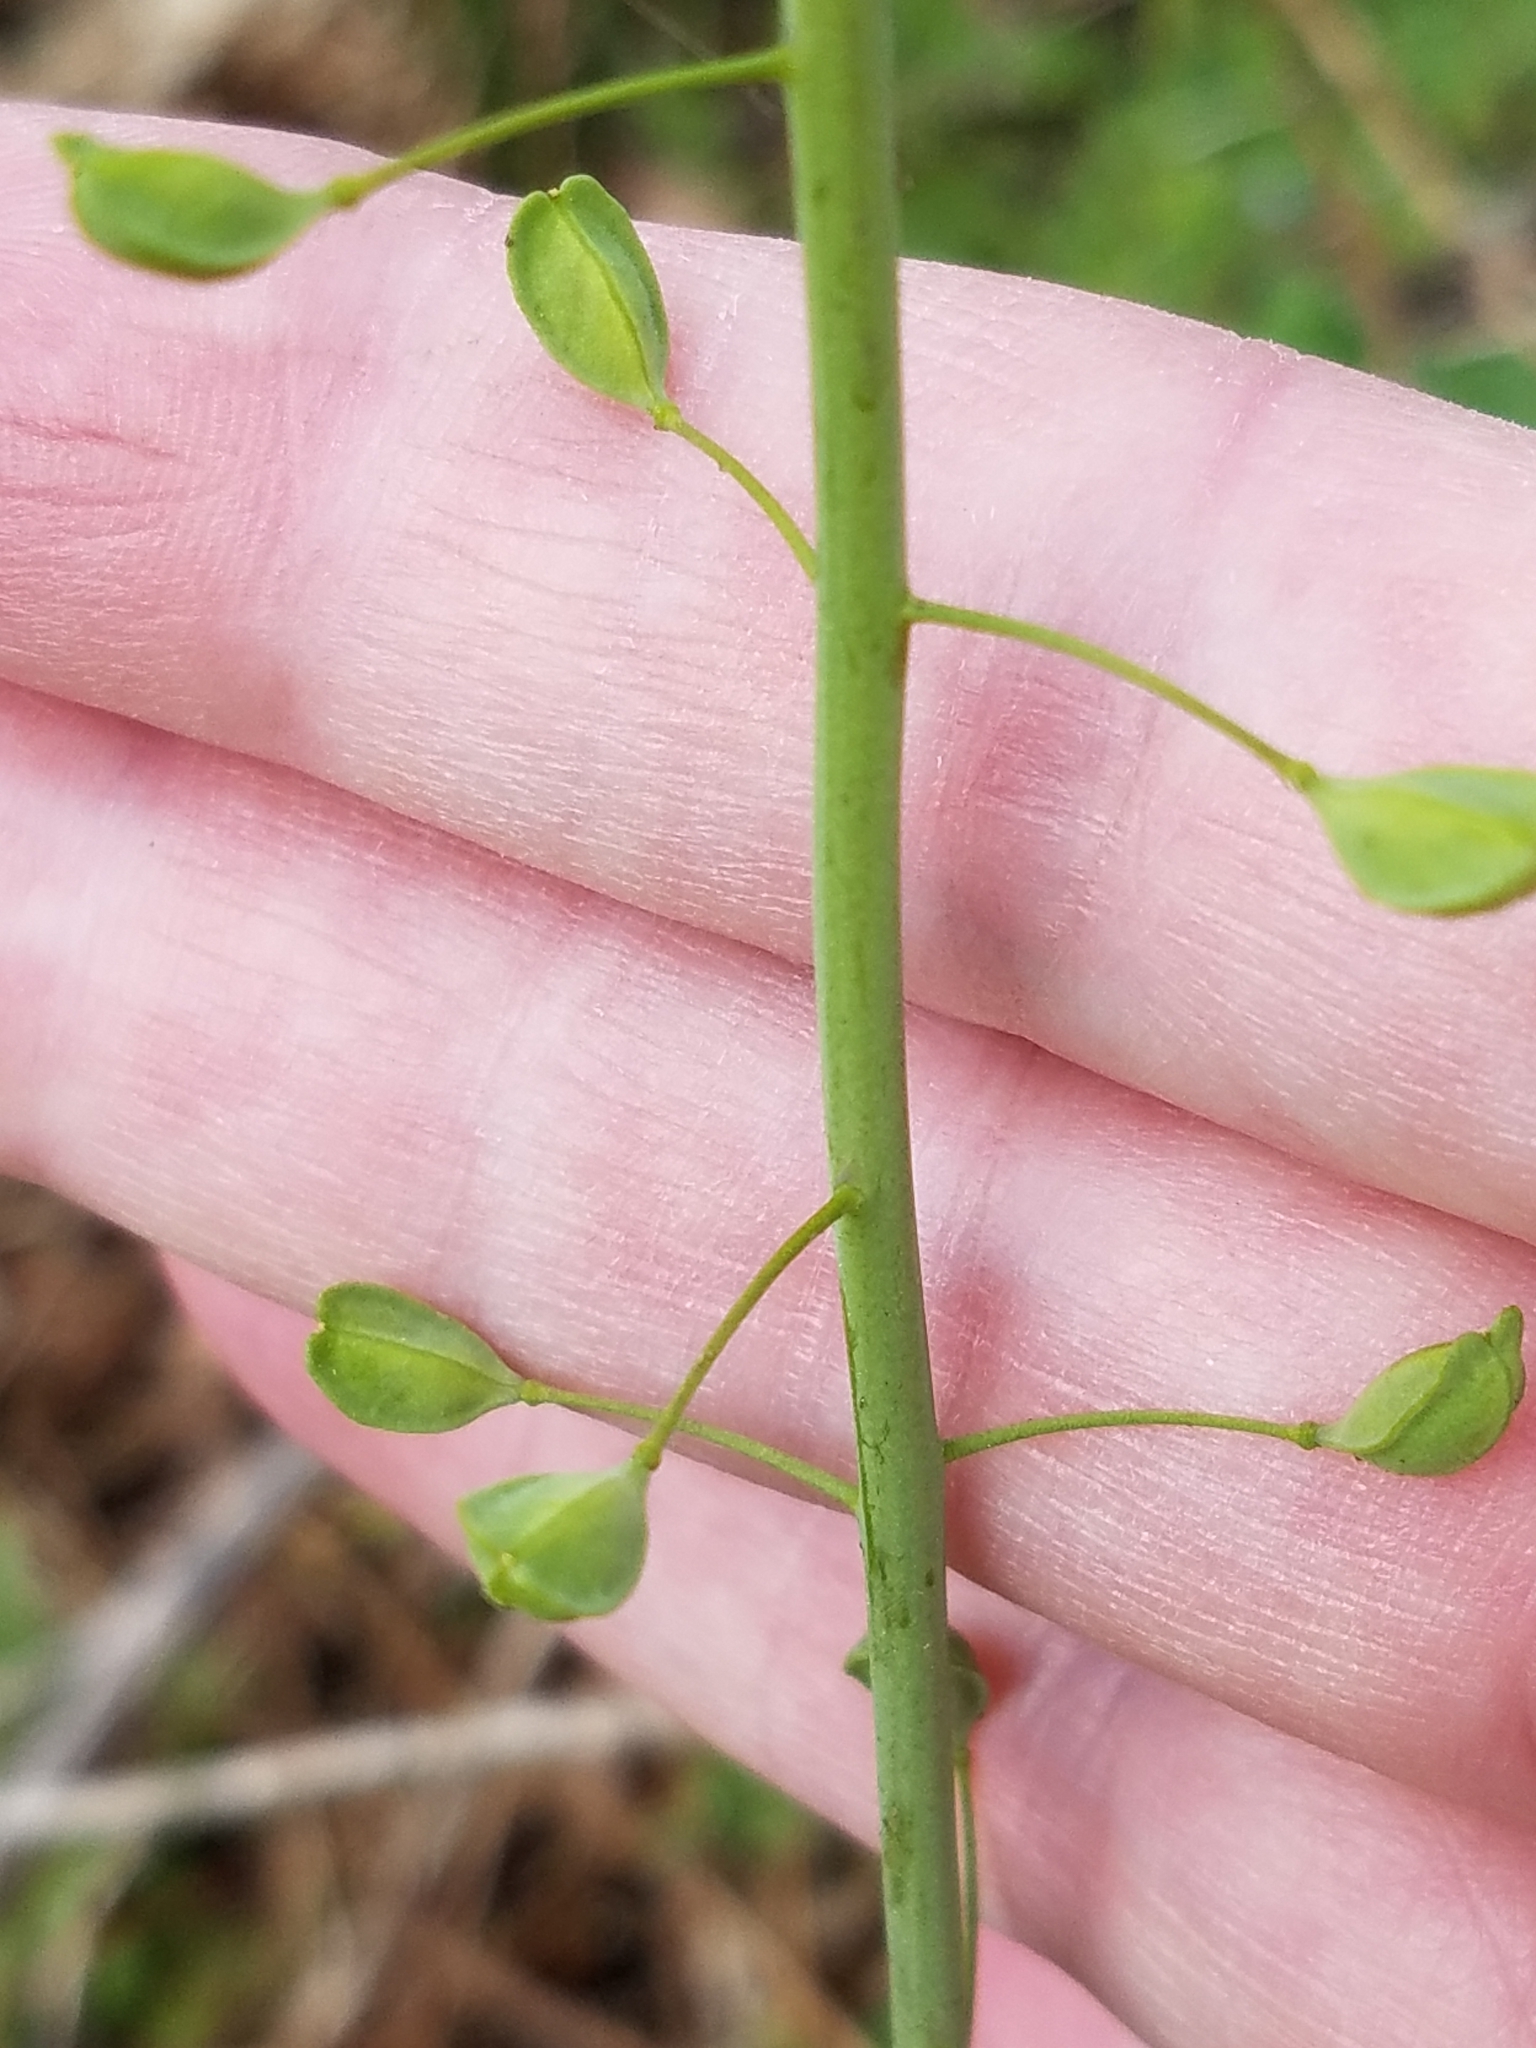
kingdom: Plantae
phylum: Tracheophyta
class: Magnoliopsida
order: Brassicales
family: Brassicaceae
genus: Mummenhoffia
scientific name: Mummenhoffia alliacea
